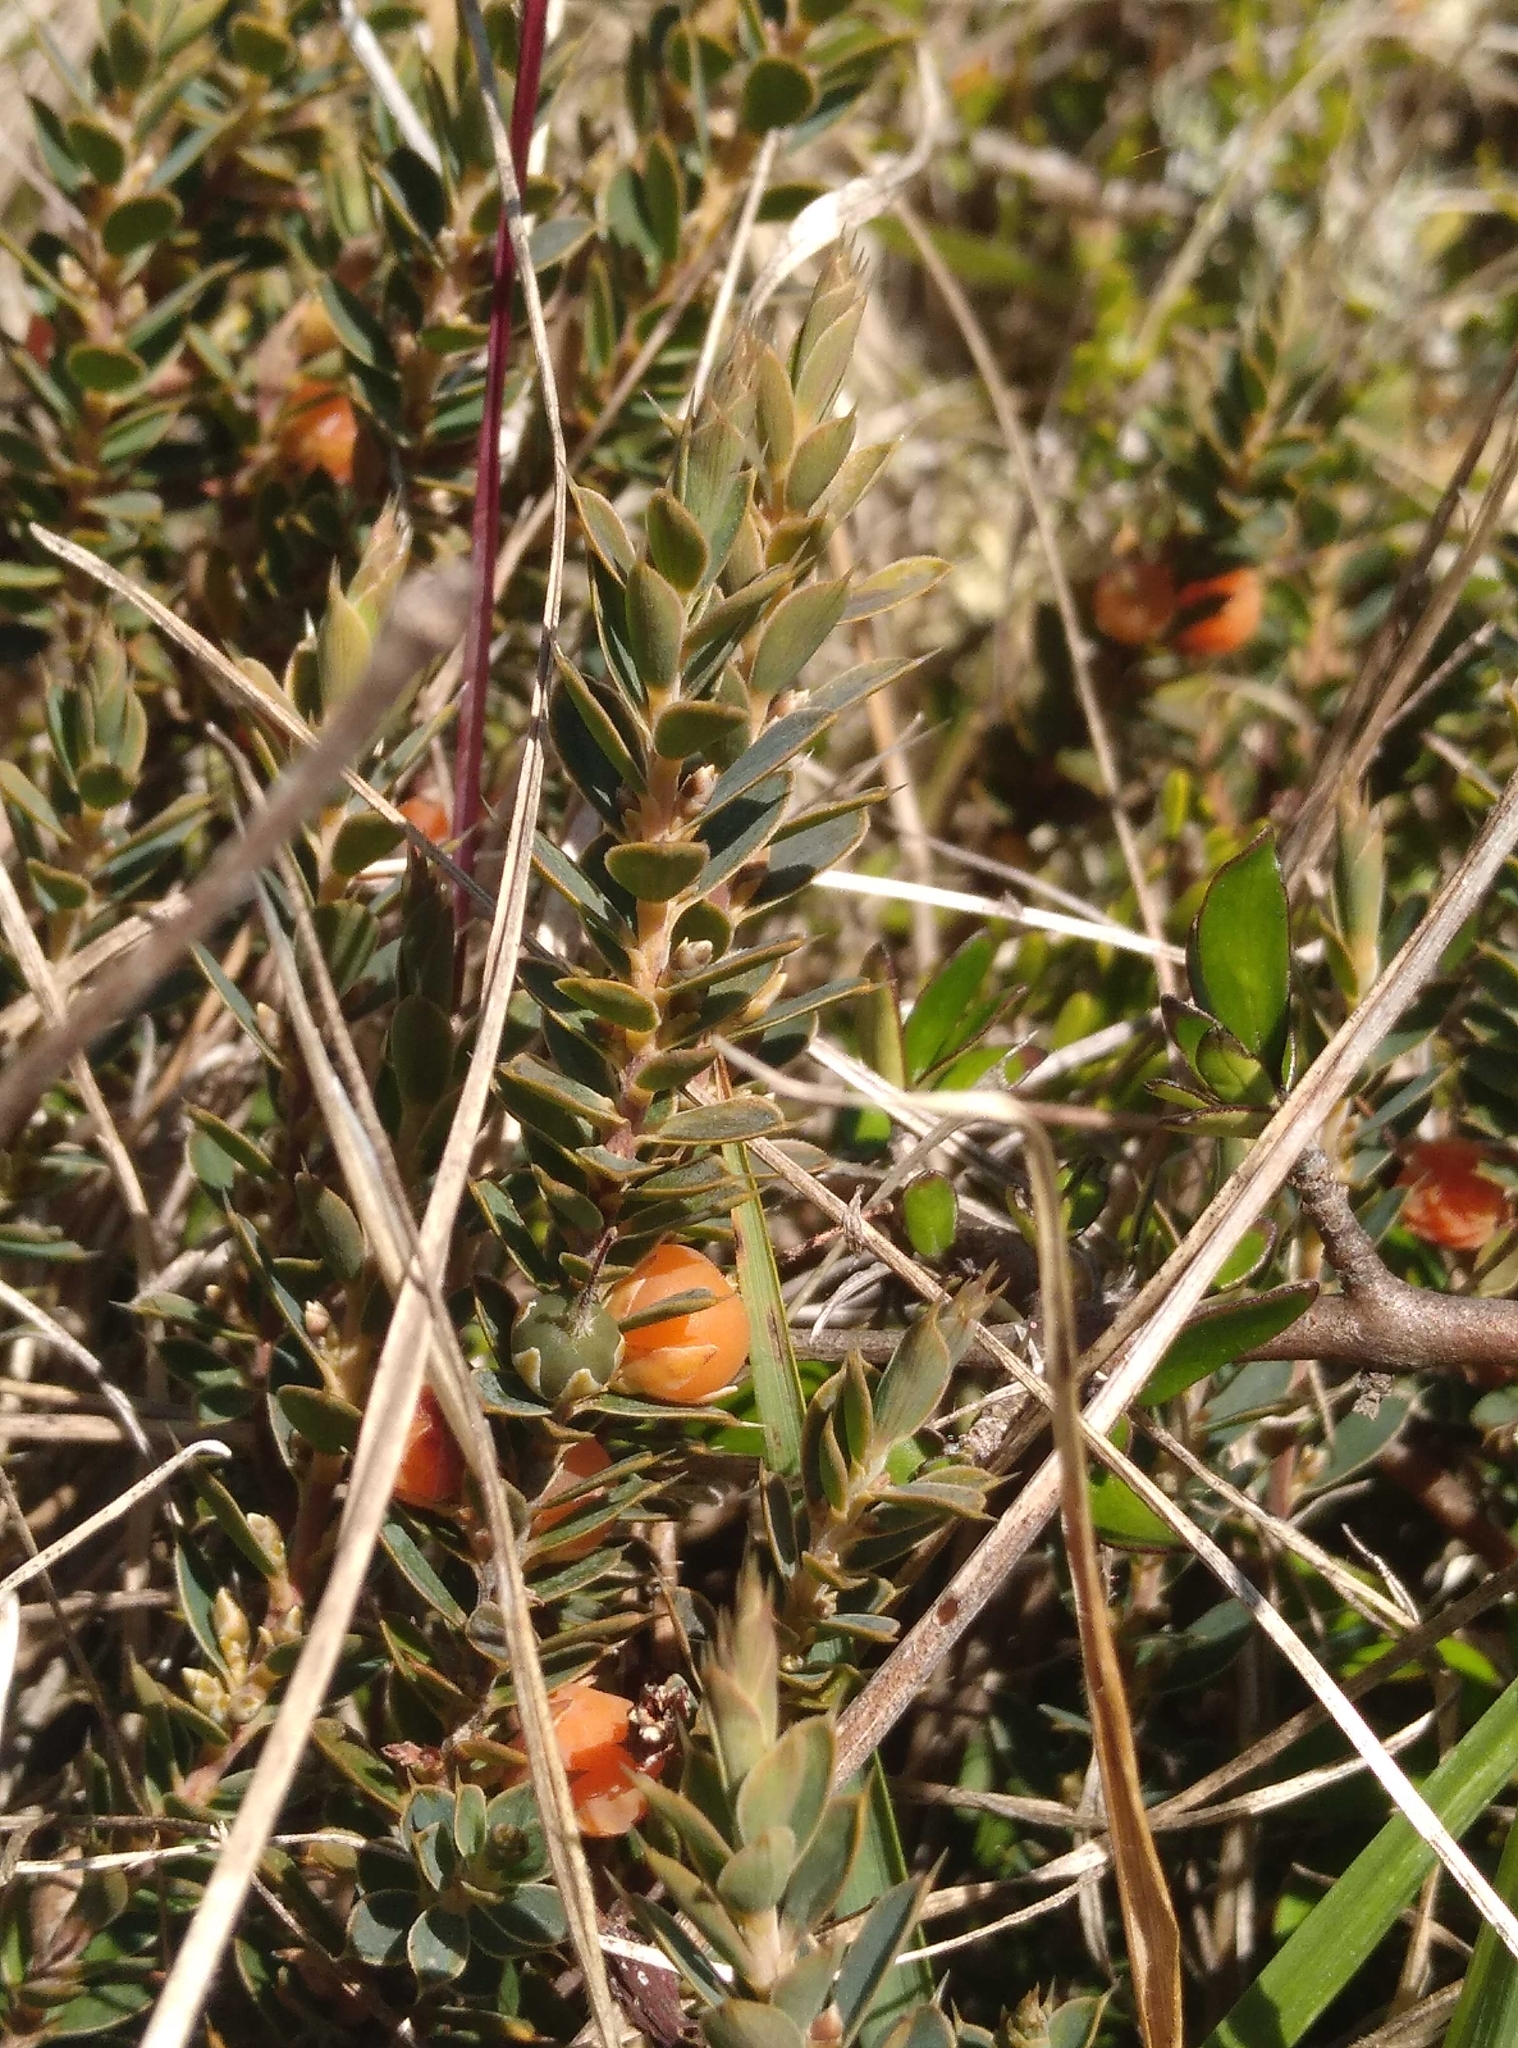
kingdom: Plantae
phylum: Tracheophyta
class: Magnoliopsida
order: Gentianales
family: Apocynaceae
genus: Parsonsia
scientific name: Parsonsia capsularis
